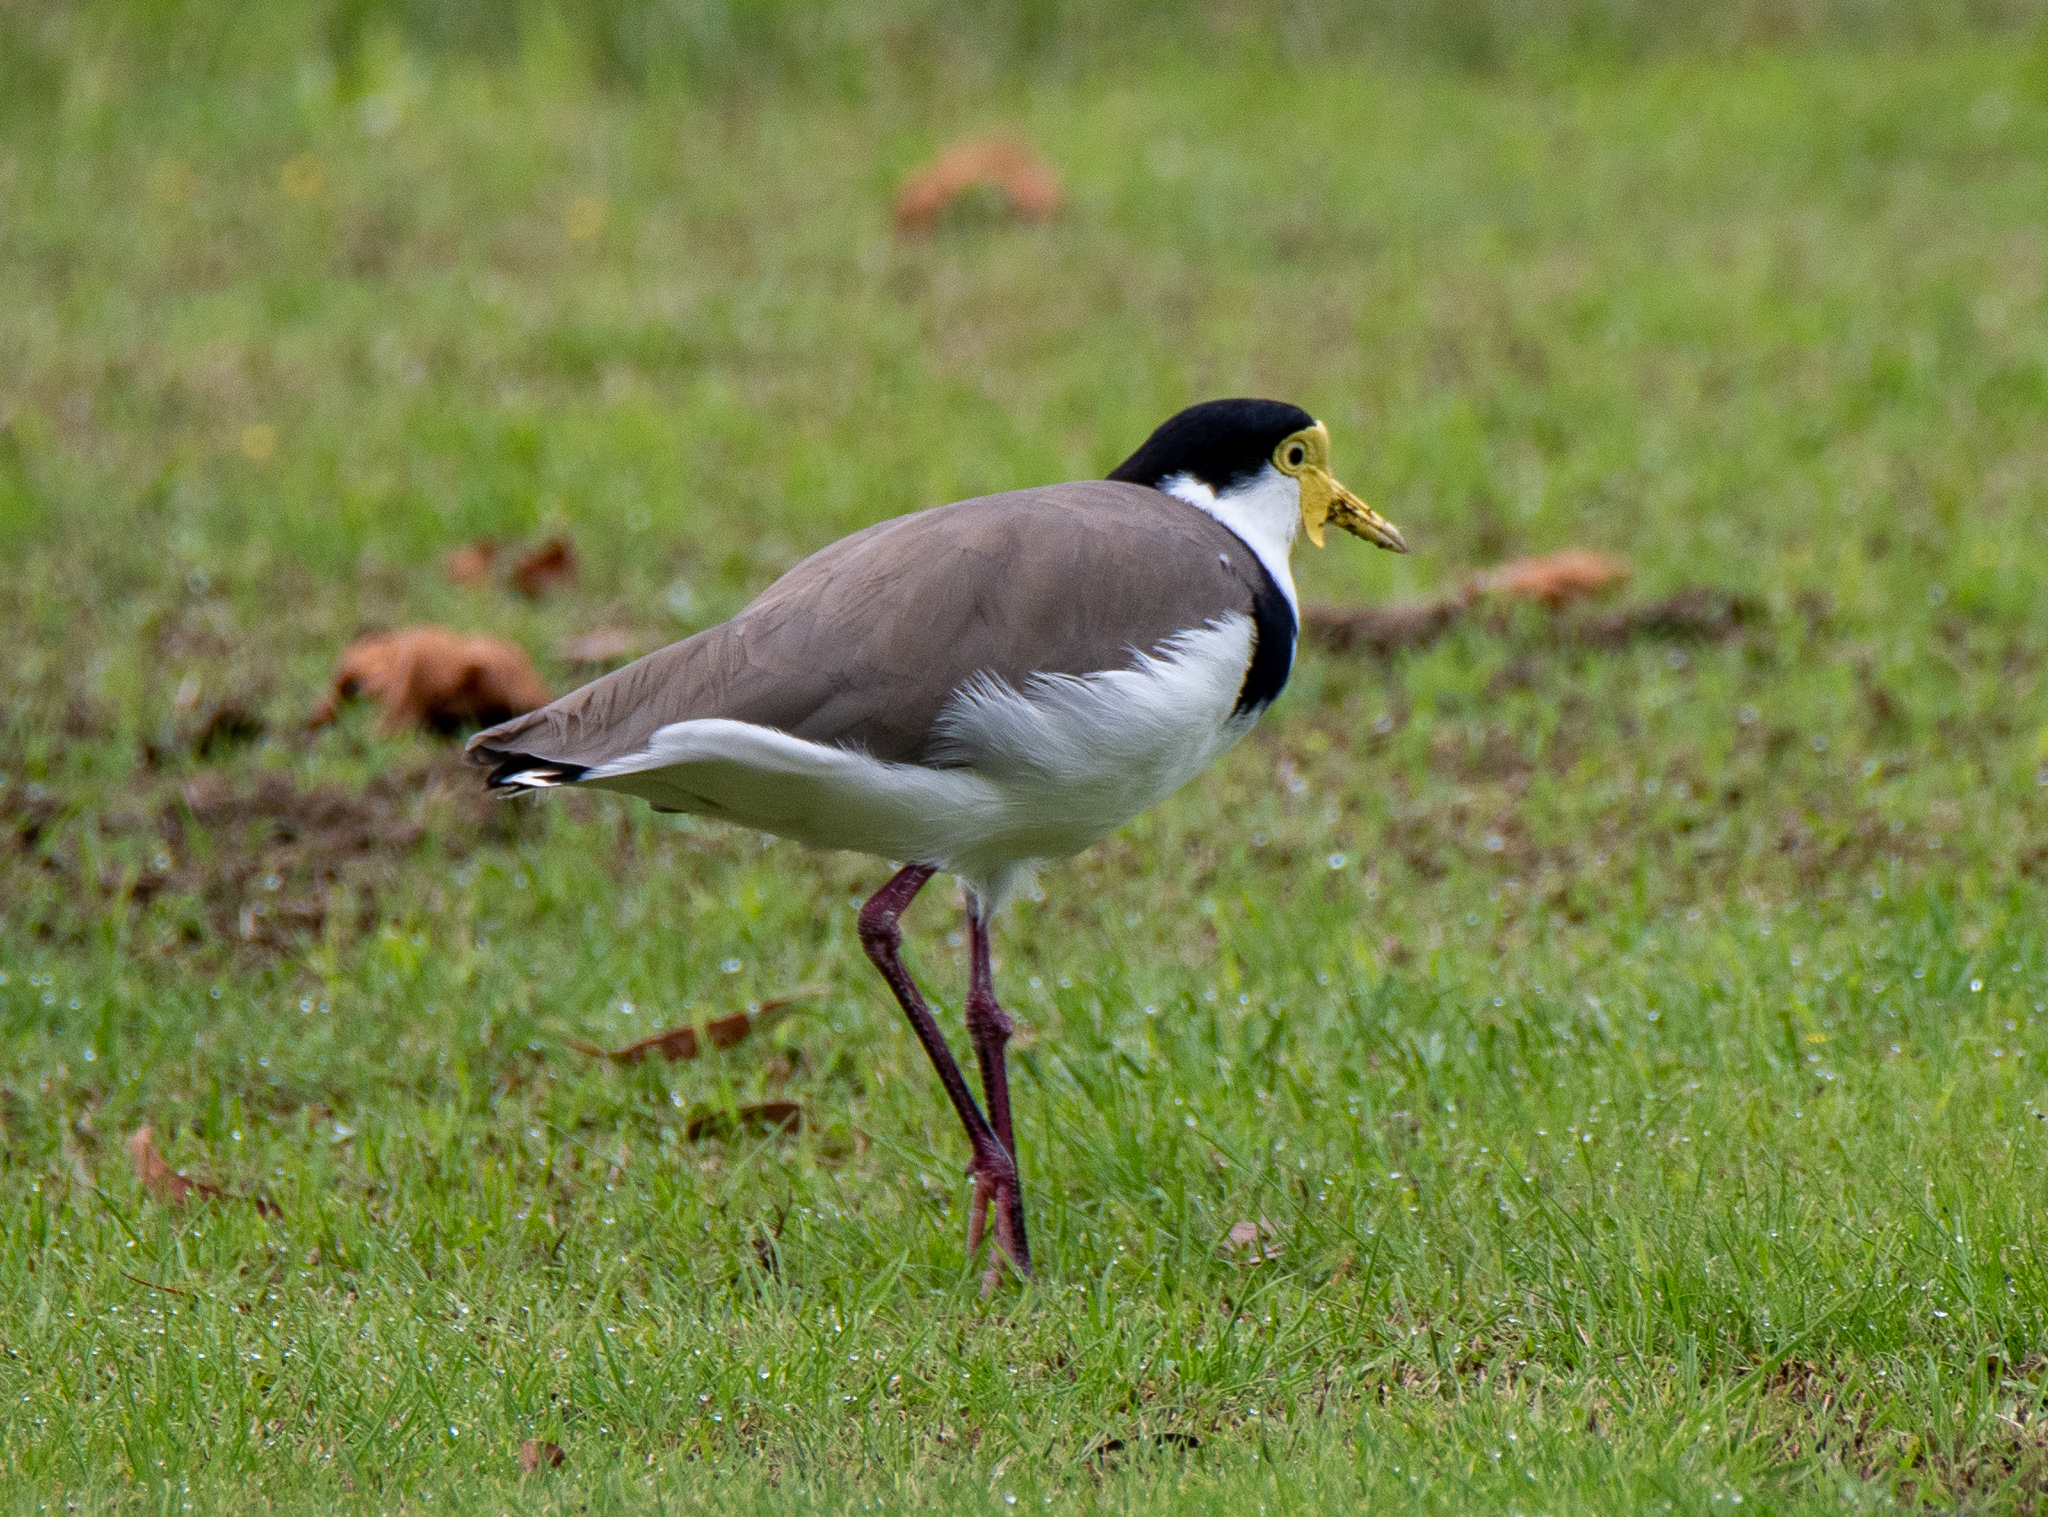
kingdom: Animalia
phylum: Chordata
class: Aves
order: Charadriiformes
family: Charadriidae
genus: Vanellus
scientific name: Vanellus miles
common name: Masked lapwing
